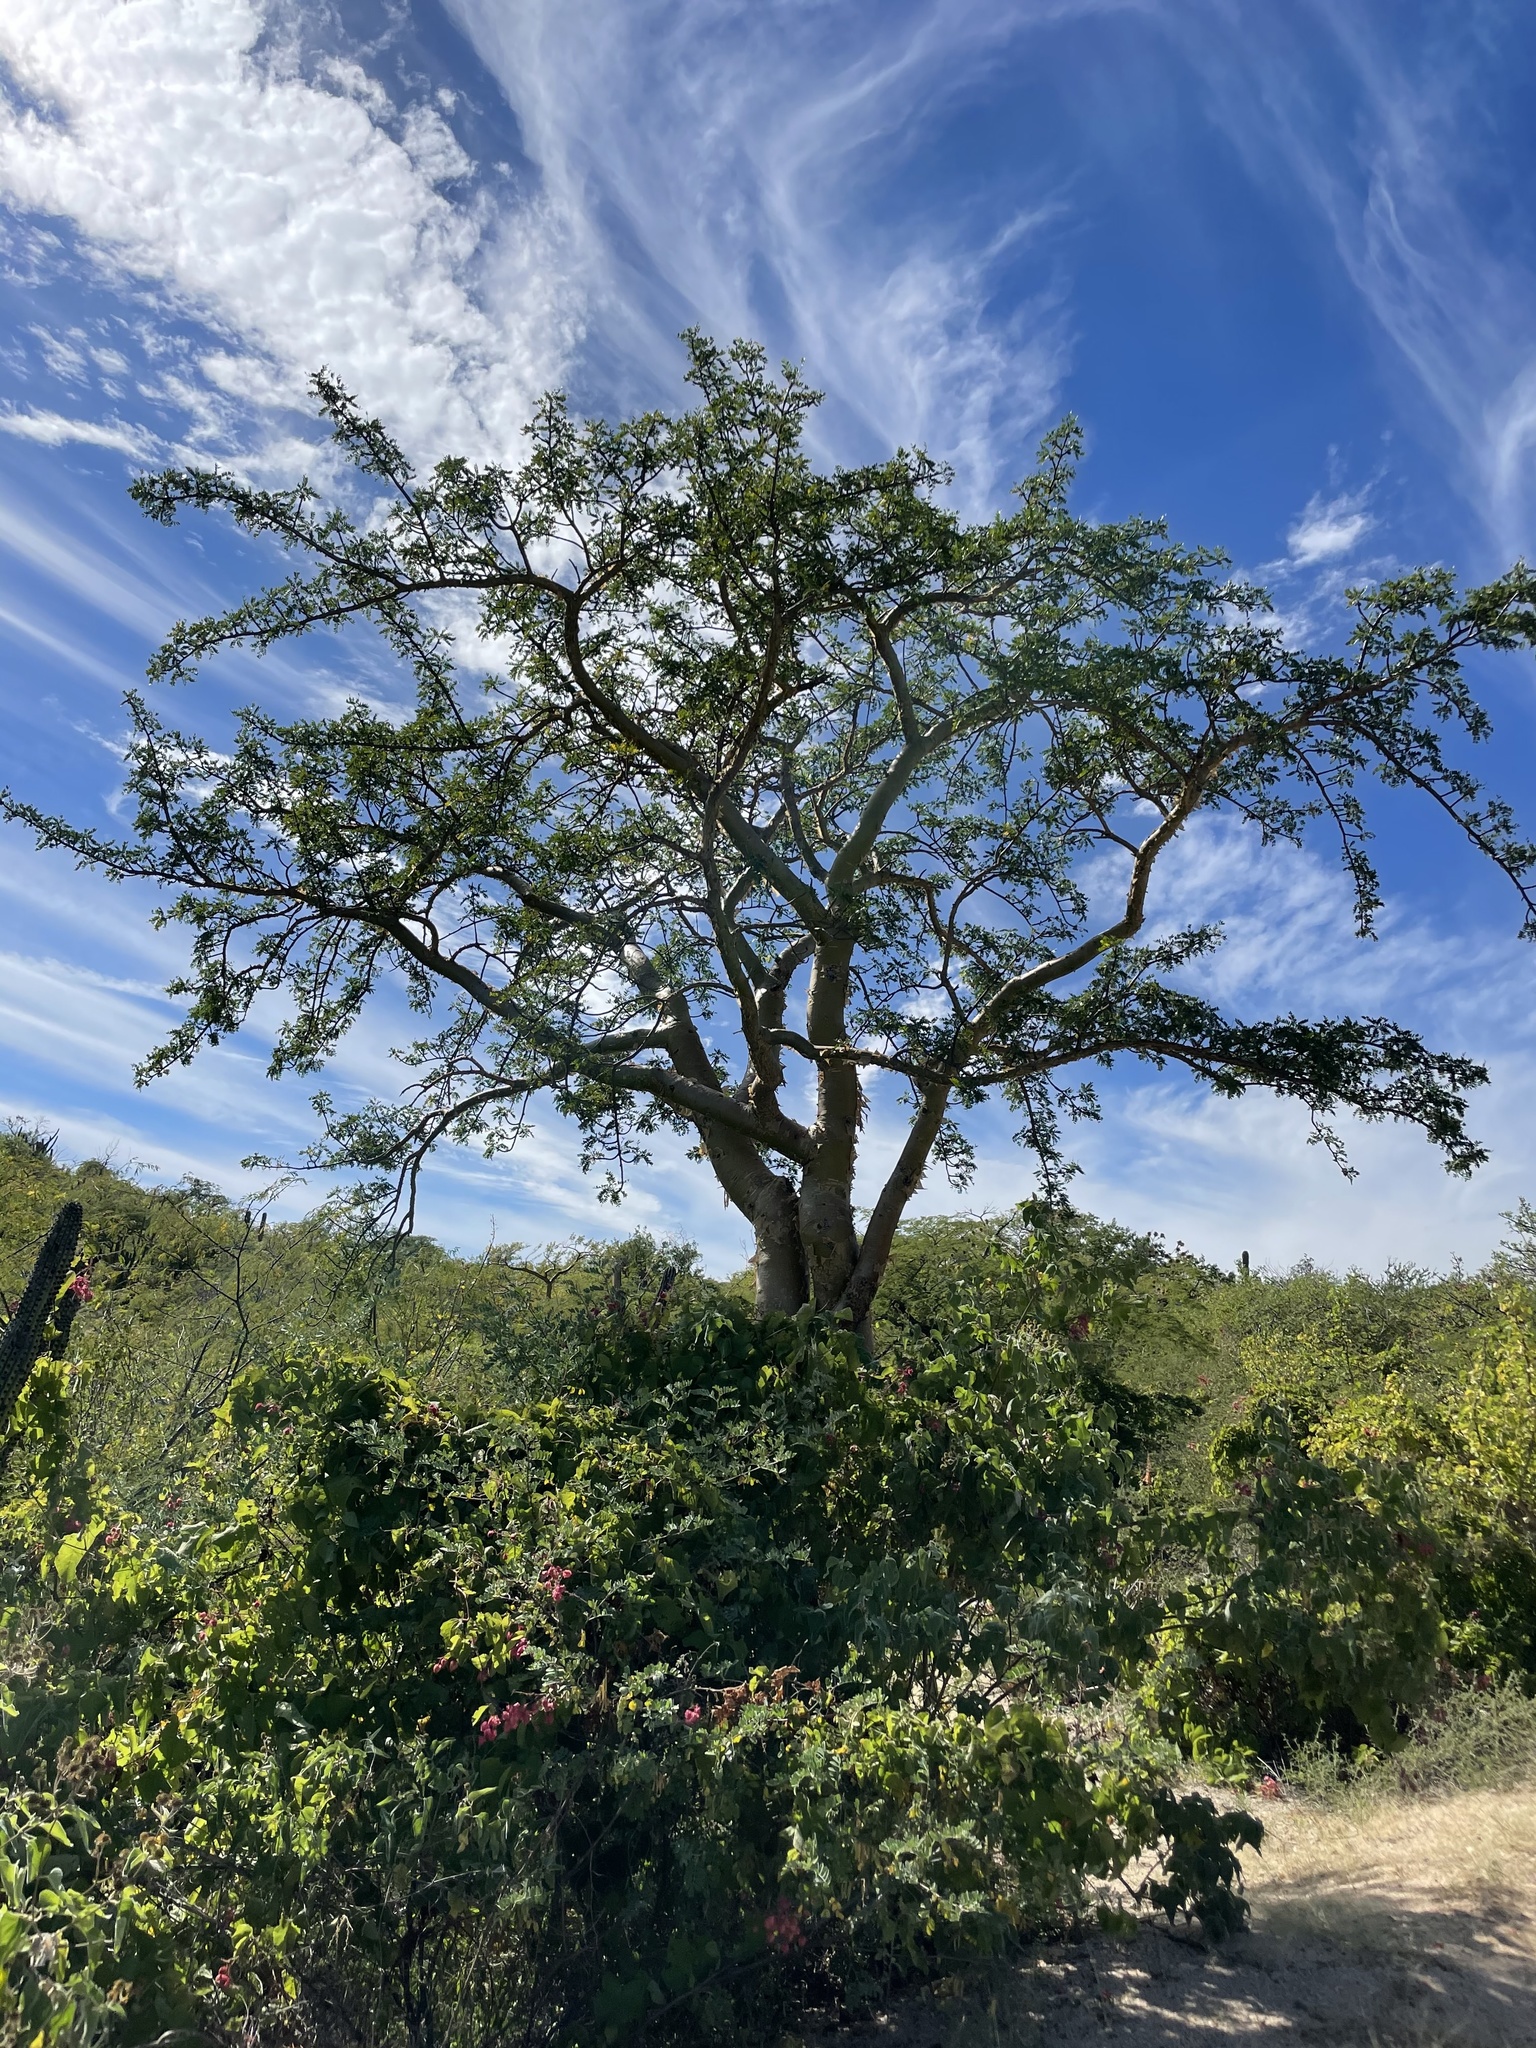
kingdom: Plantae
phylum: Tracheophyta
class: Magnoliopsida
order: Sapindales
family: Burseraceae
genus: Bursera
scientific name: Bursera microphylla
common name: Elephant tree
